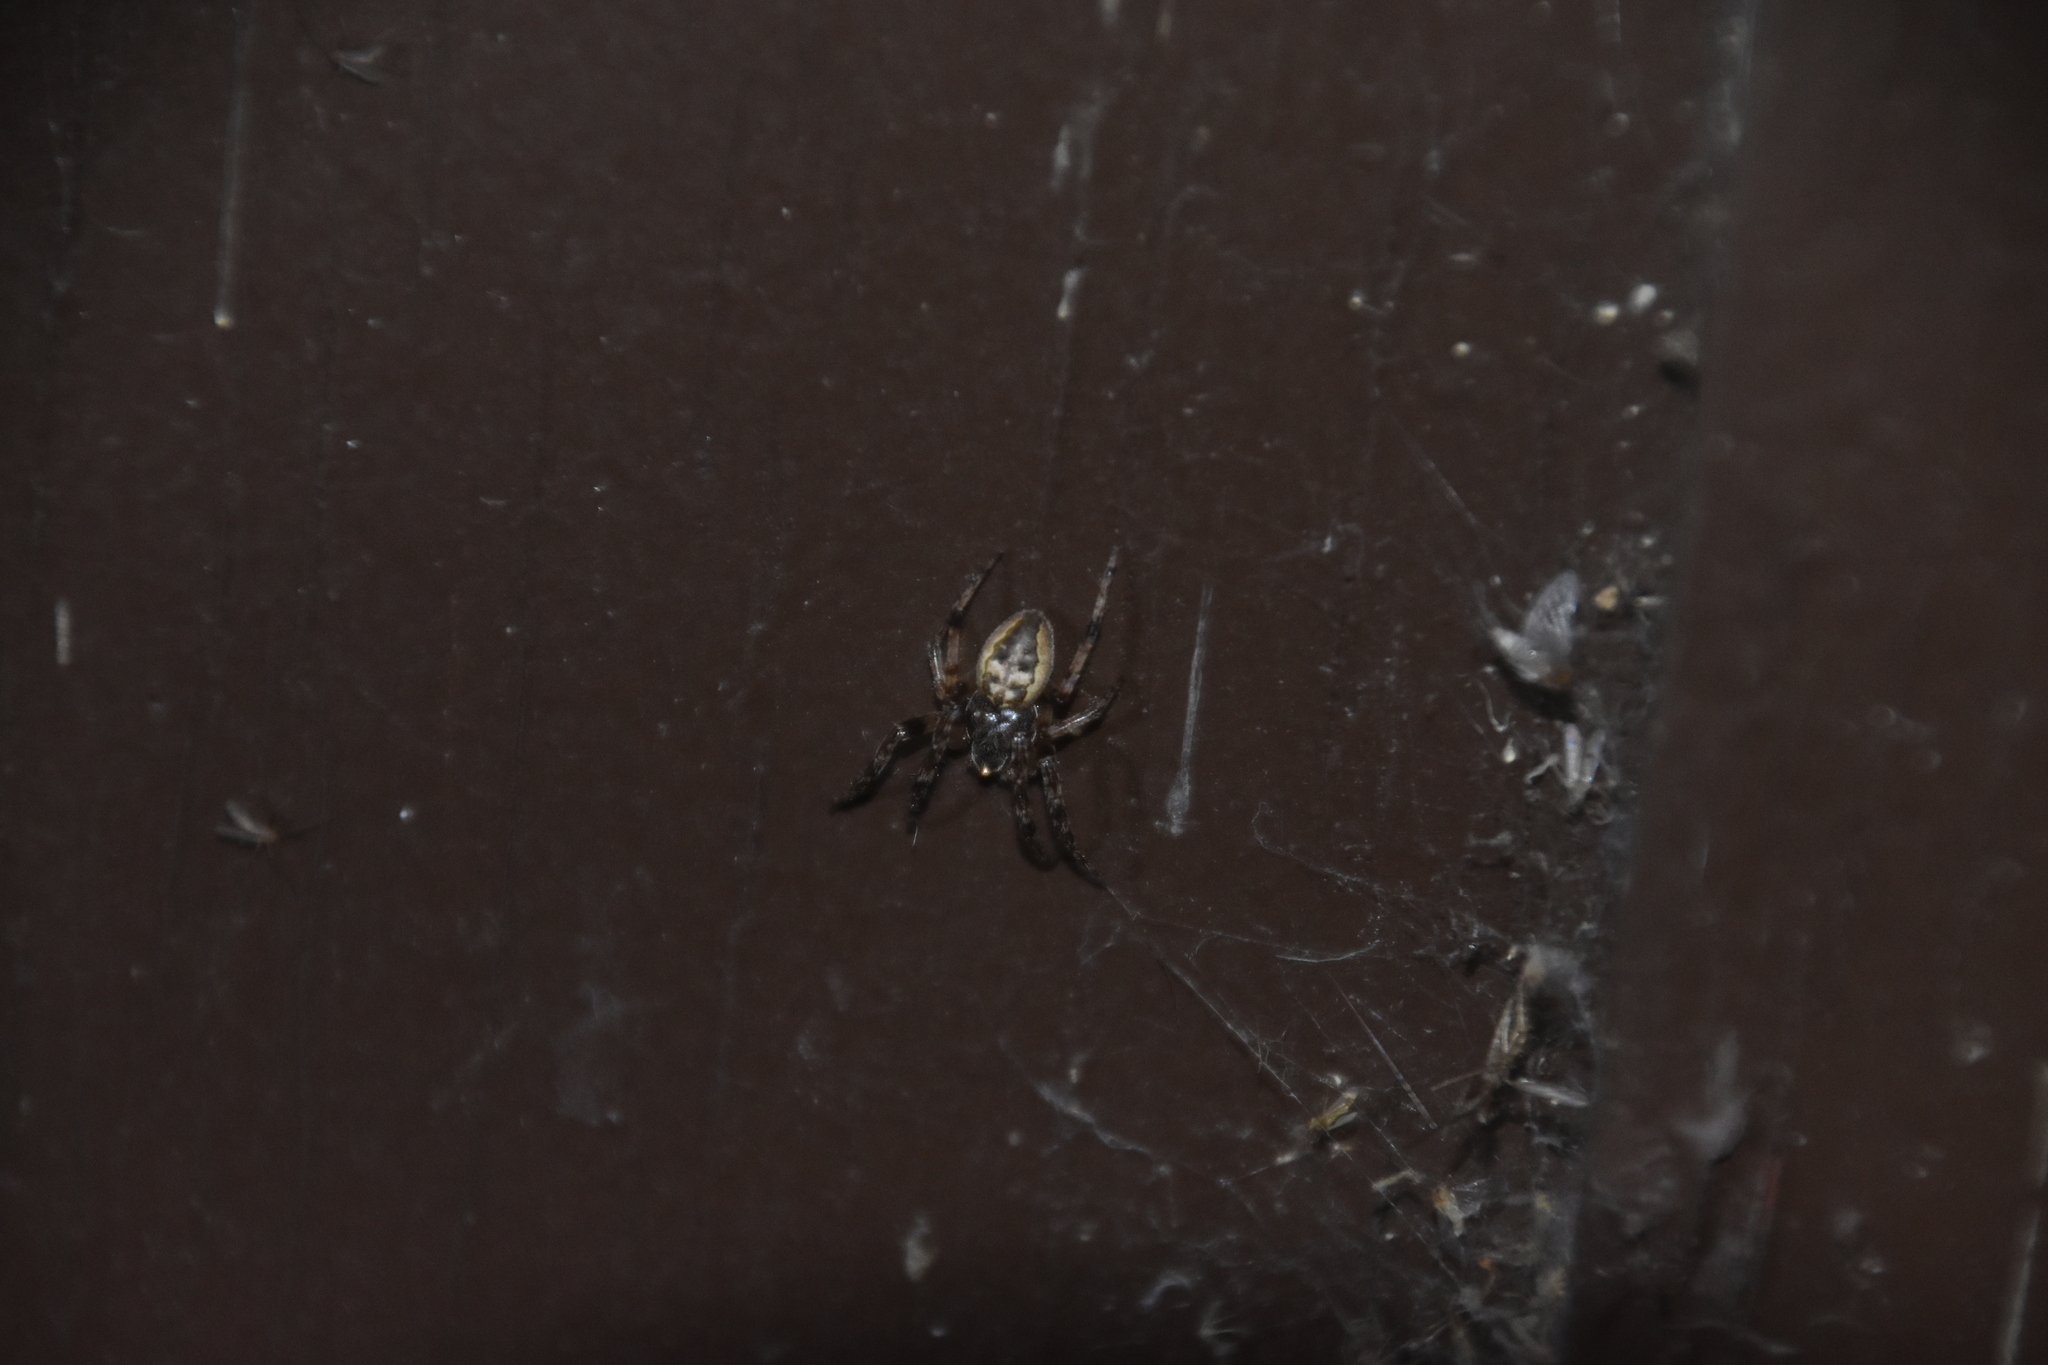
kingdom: Animalia
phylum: Arthropoda
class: Arachnida
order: Araneae
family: Araneidae
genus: Larinioides
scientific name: Larinioides cornutus
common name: Furrow orbweaver
